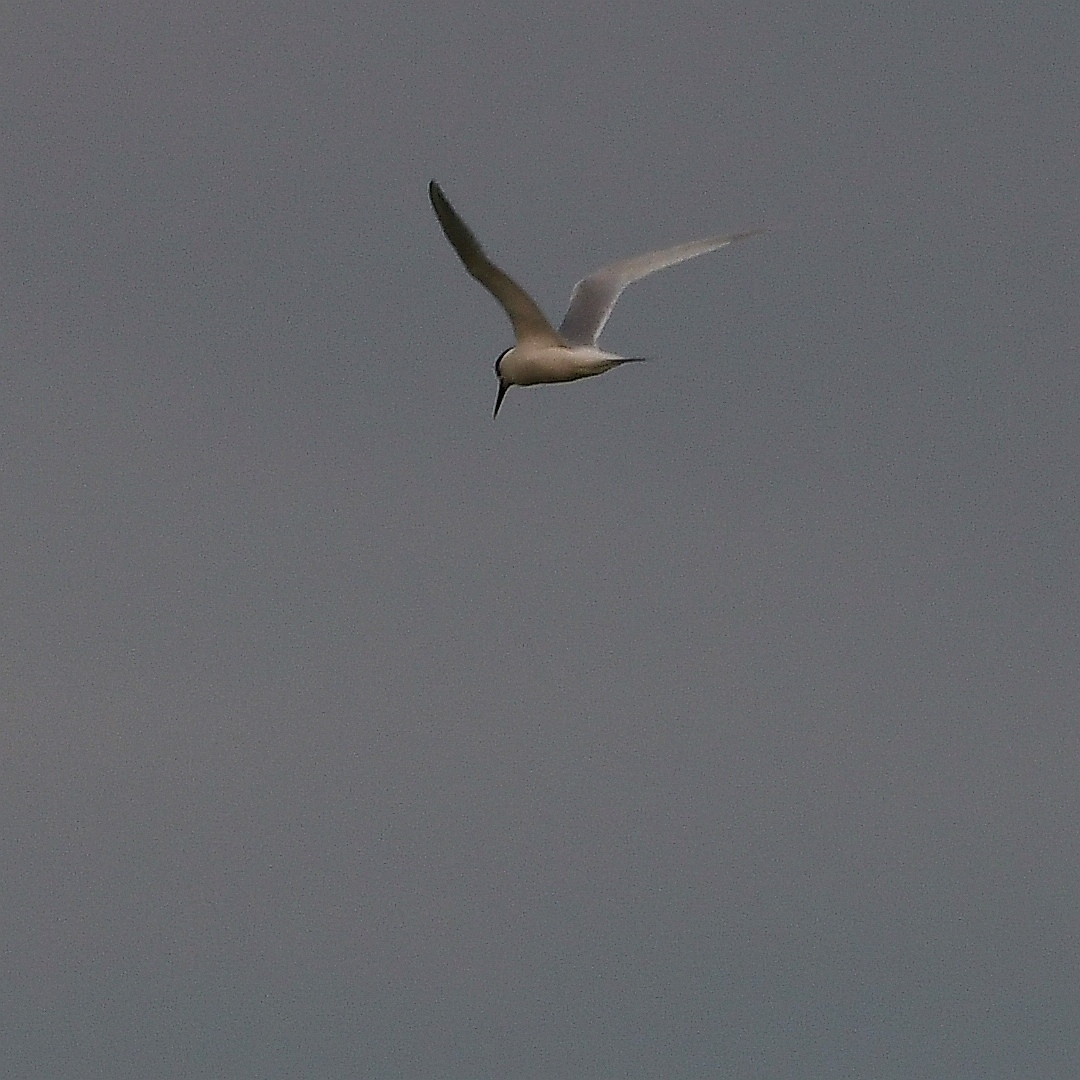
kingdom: Animalia
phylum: Chordata
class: Aves
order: Charadriiformes
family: Laridae
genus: Thalasseus
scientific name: Thalasseus sandvicensis
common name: Sandwich tern
